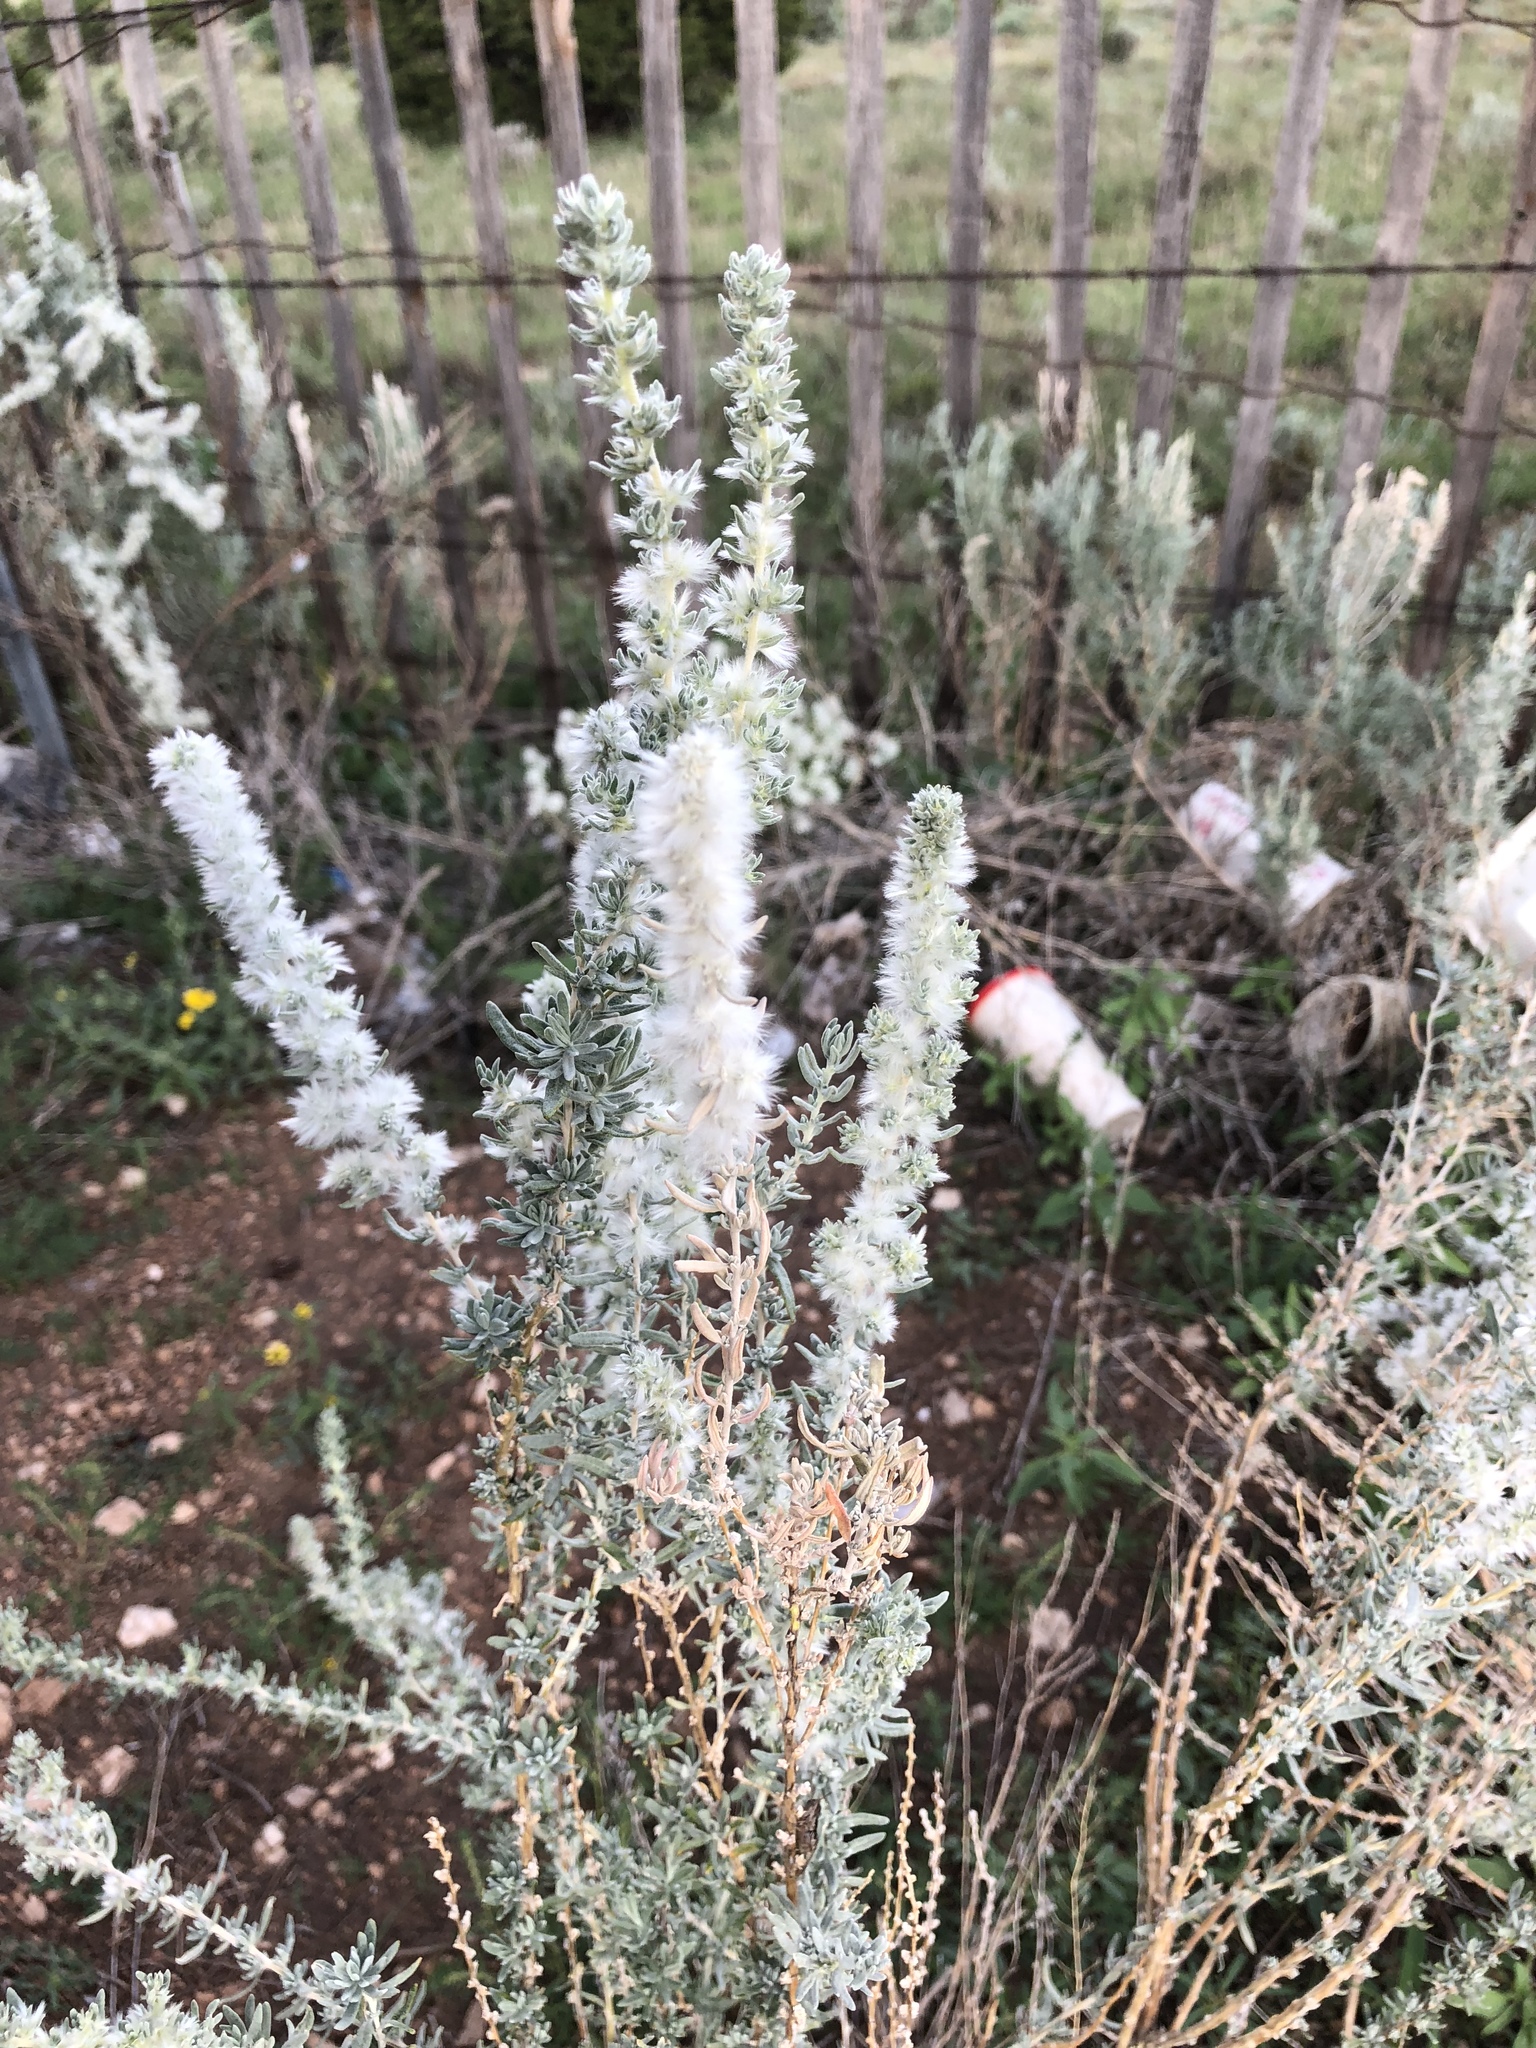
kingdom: Plantae
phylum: Tracheophyta
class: Magnoliopsida
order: Caryophyllales
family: Amaranthaceae
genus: Krascheninnikovia
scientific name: Krascheninnikovia lanata
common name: Winterfat
